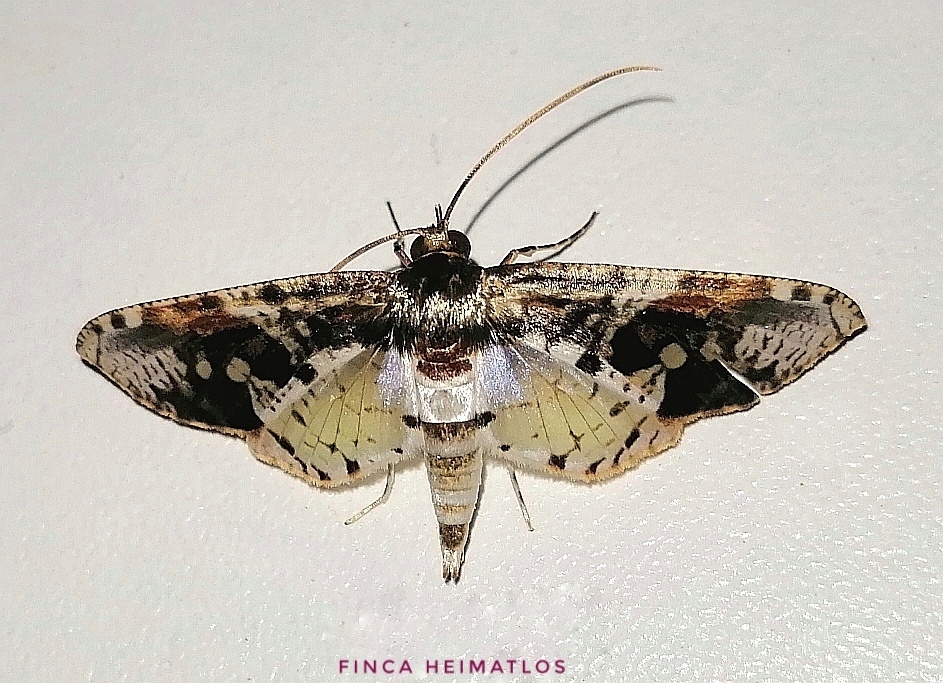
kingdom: Animalia
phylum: Arthropoda
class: Insecta
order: Lepidoptera
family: Thyrididae
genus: Microsca
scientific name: Microsca pulchelloides
